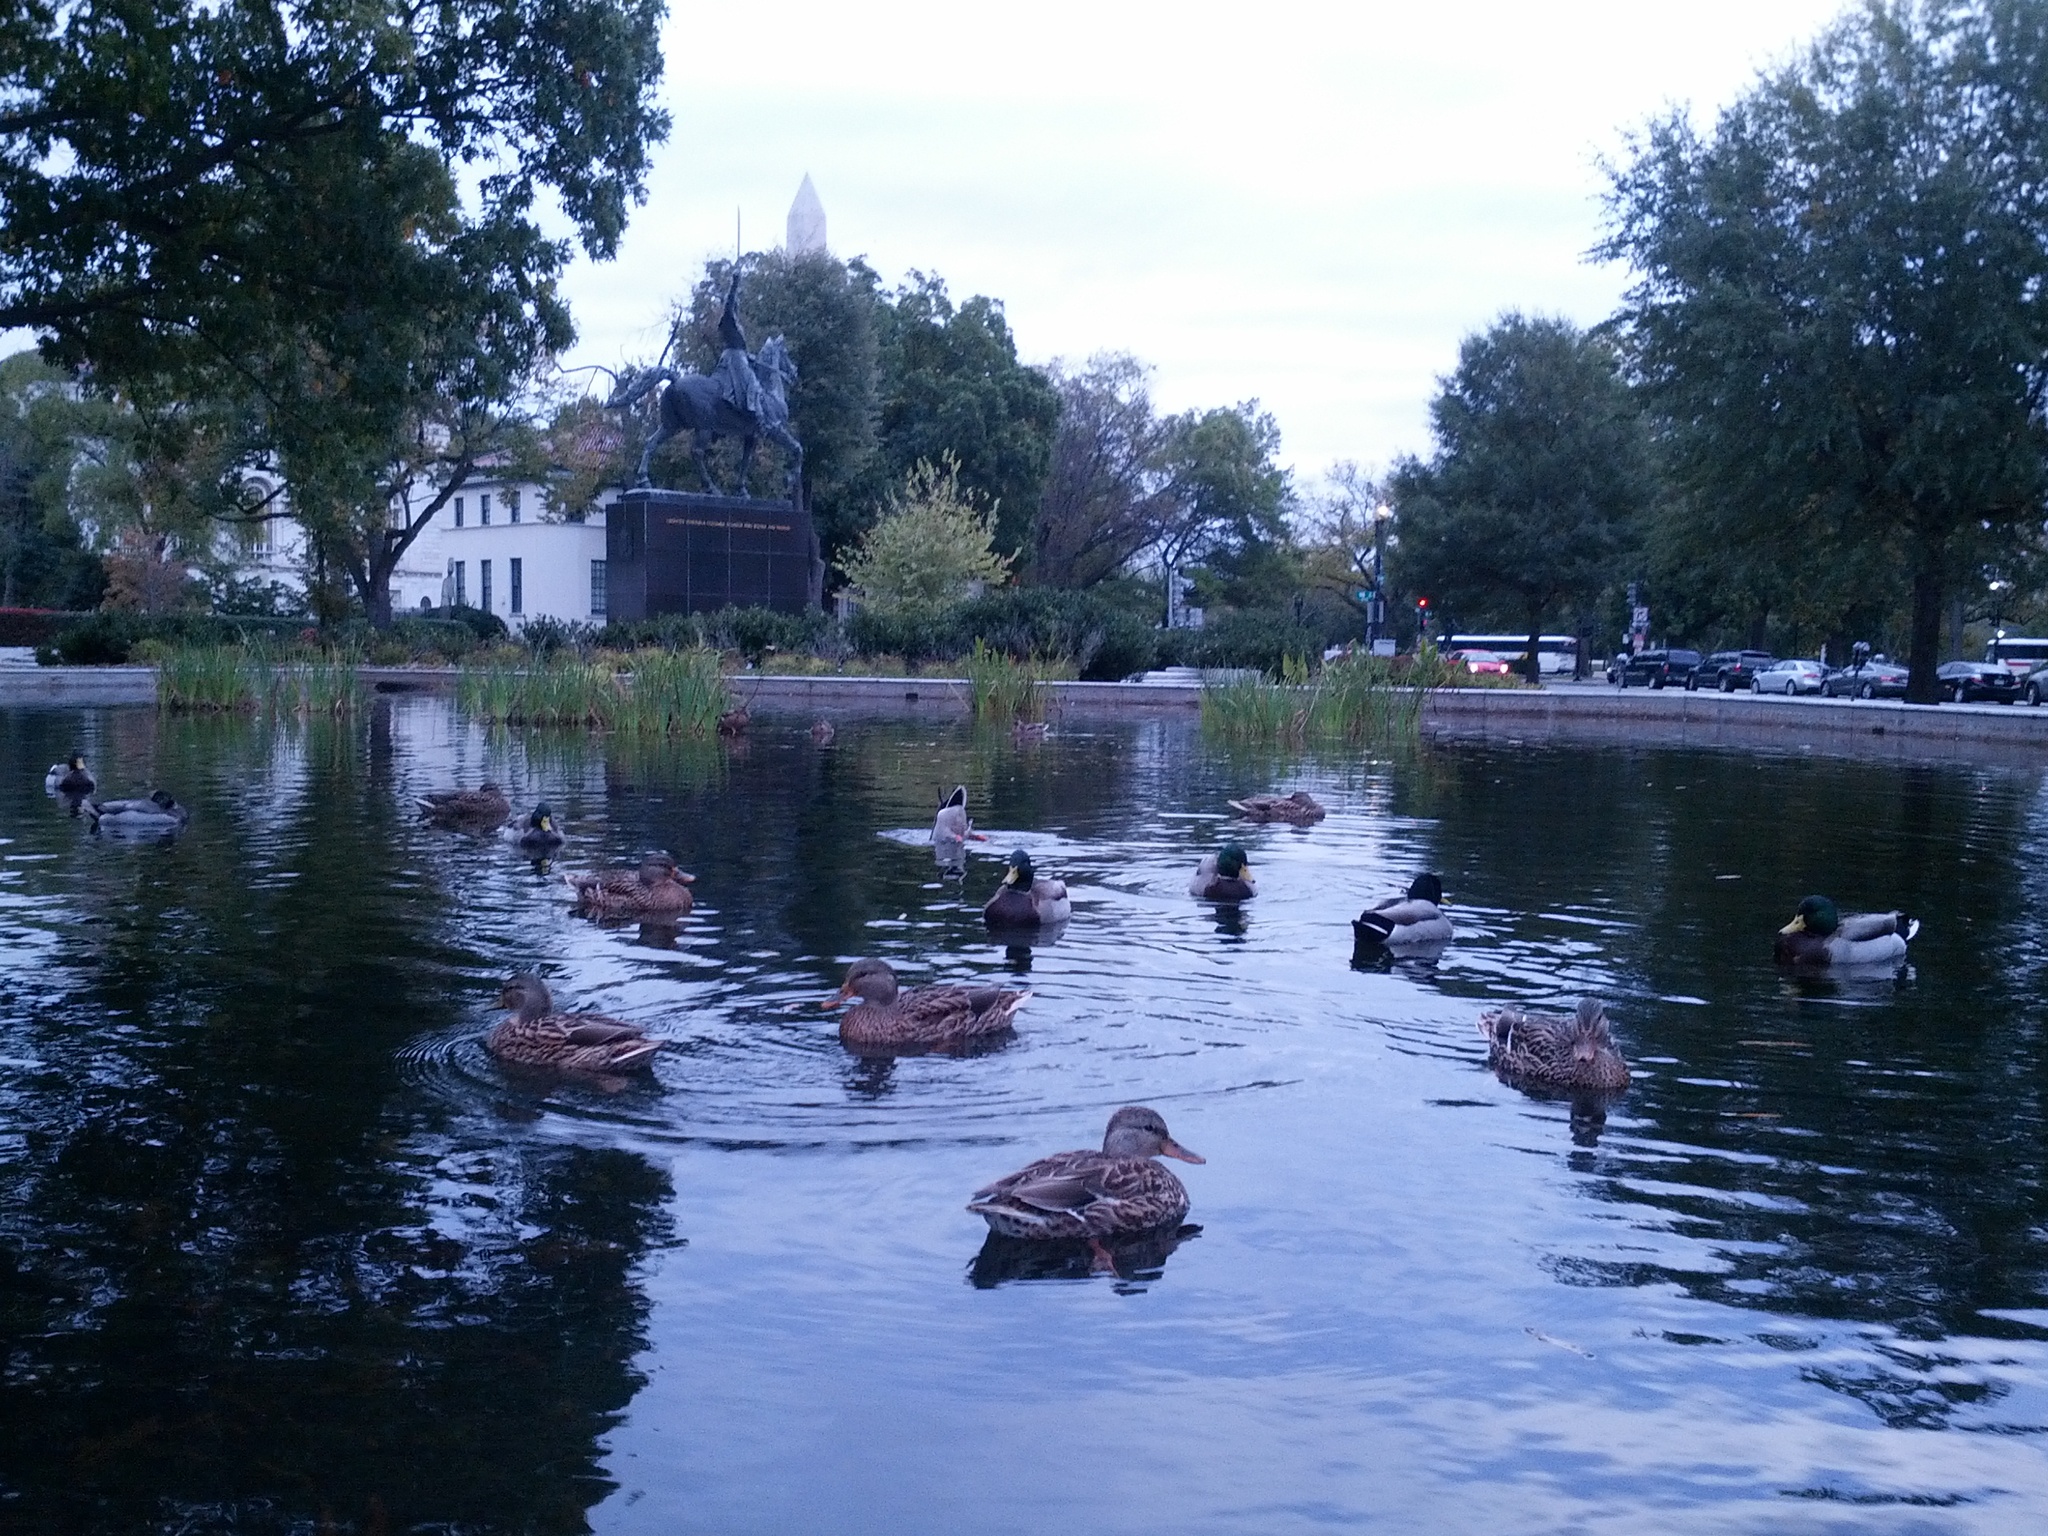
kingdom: Animalia
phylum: Chordata
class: Aves
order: Anseriformes
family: Anatidae
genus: Anas
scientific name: Anas platyrhynchos
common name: Mallard
